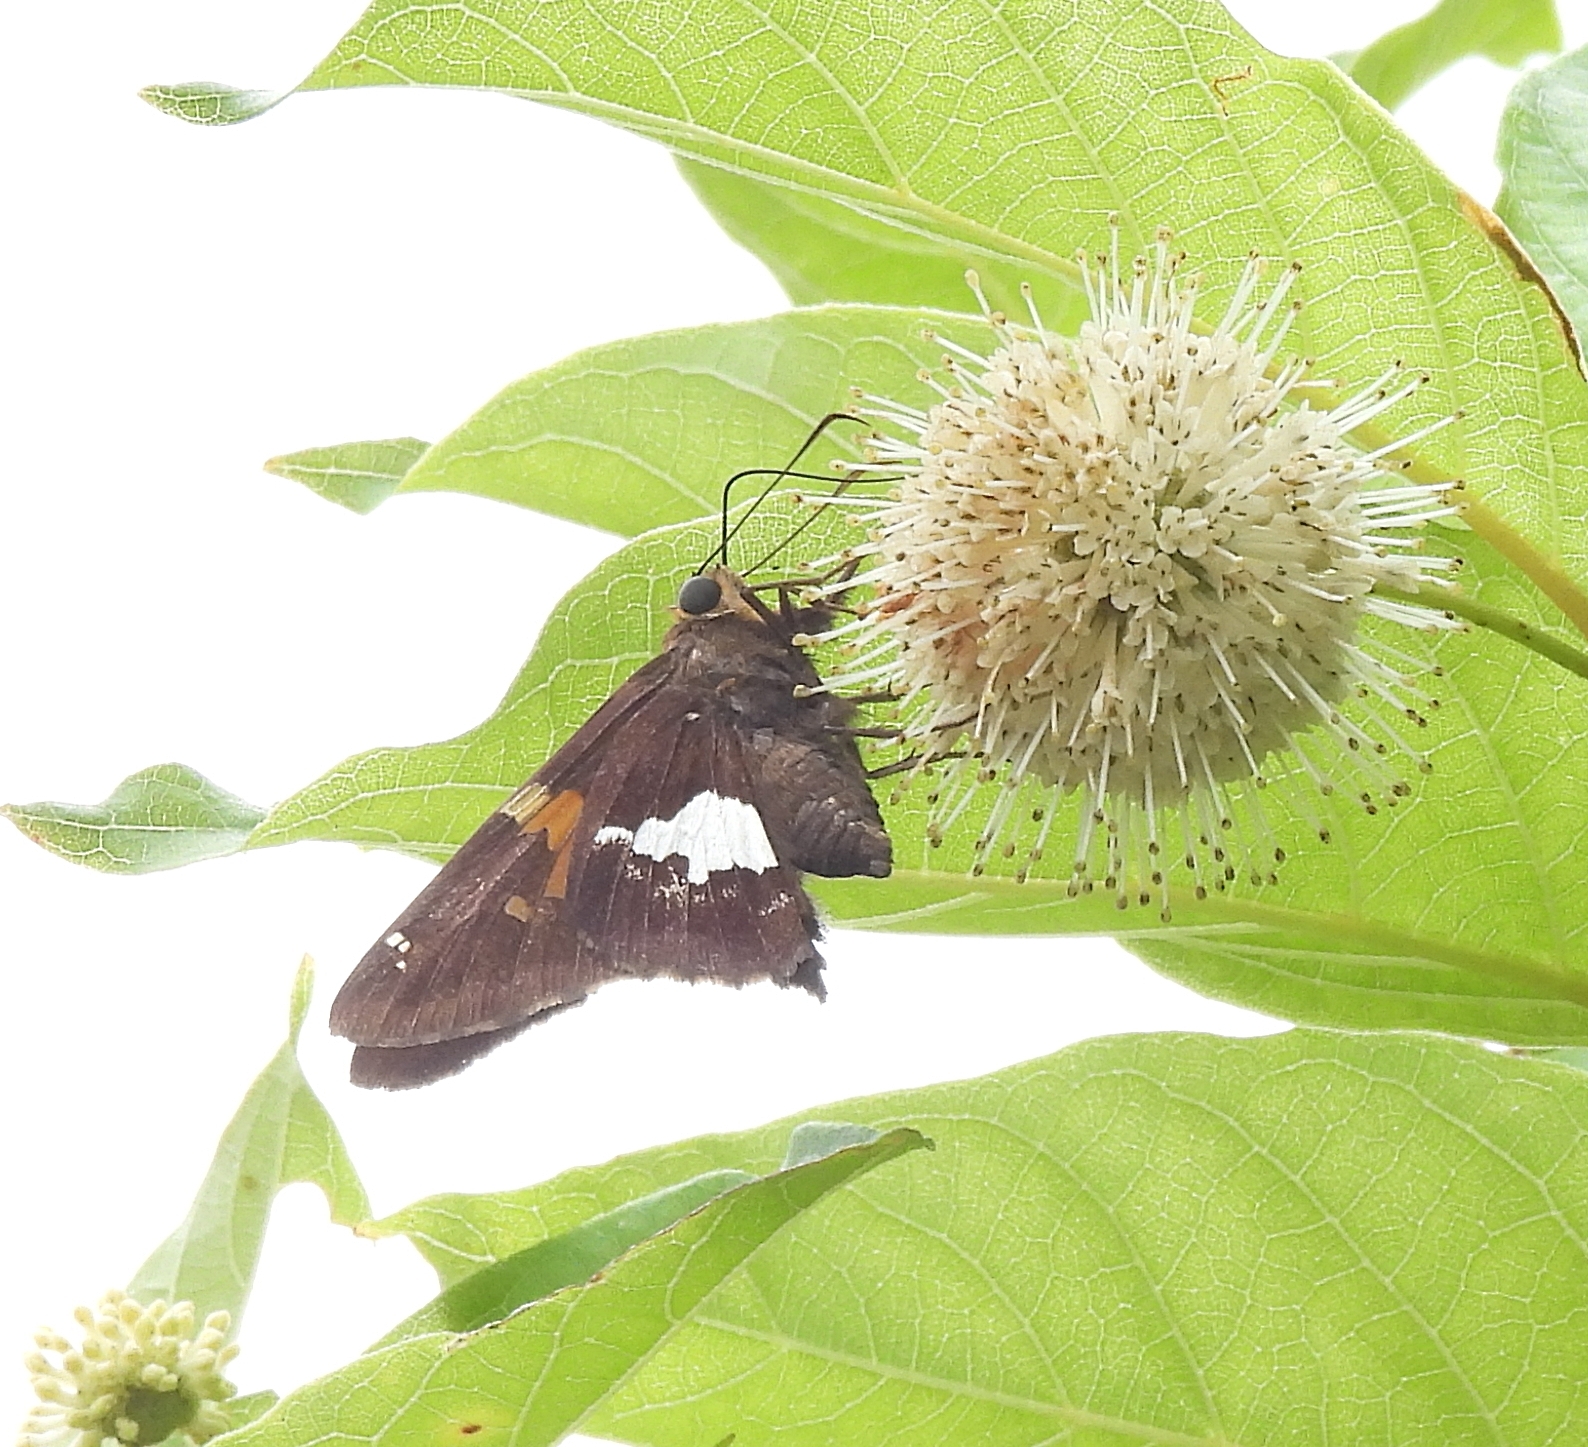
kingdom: Animalia
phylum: Arthropoda
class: Insecta
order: Lepidoptera
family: Hesperiidae
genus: Epargyreus
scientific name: Epargyreus clarus
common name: Silver-spotted skipper
